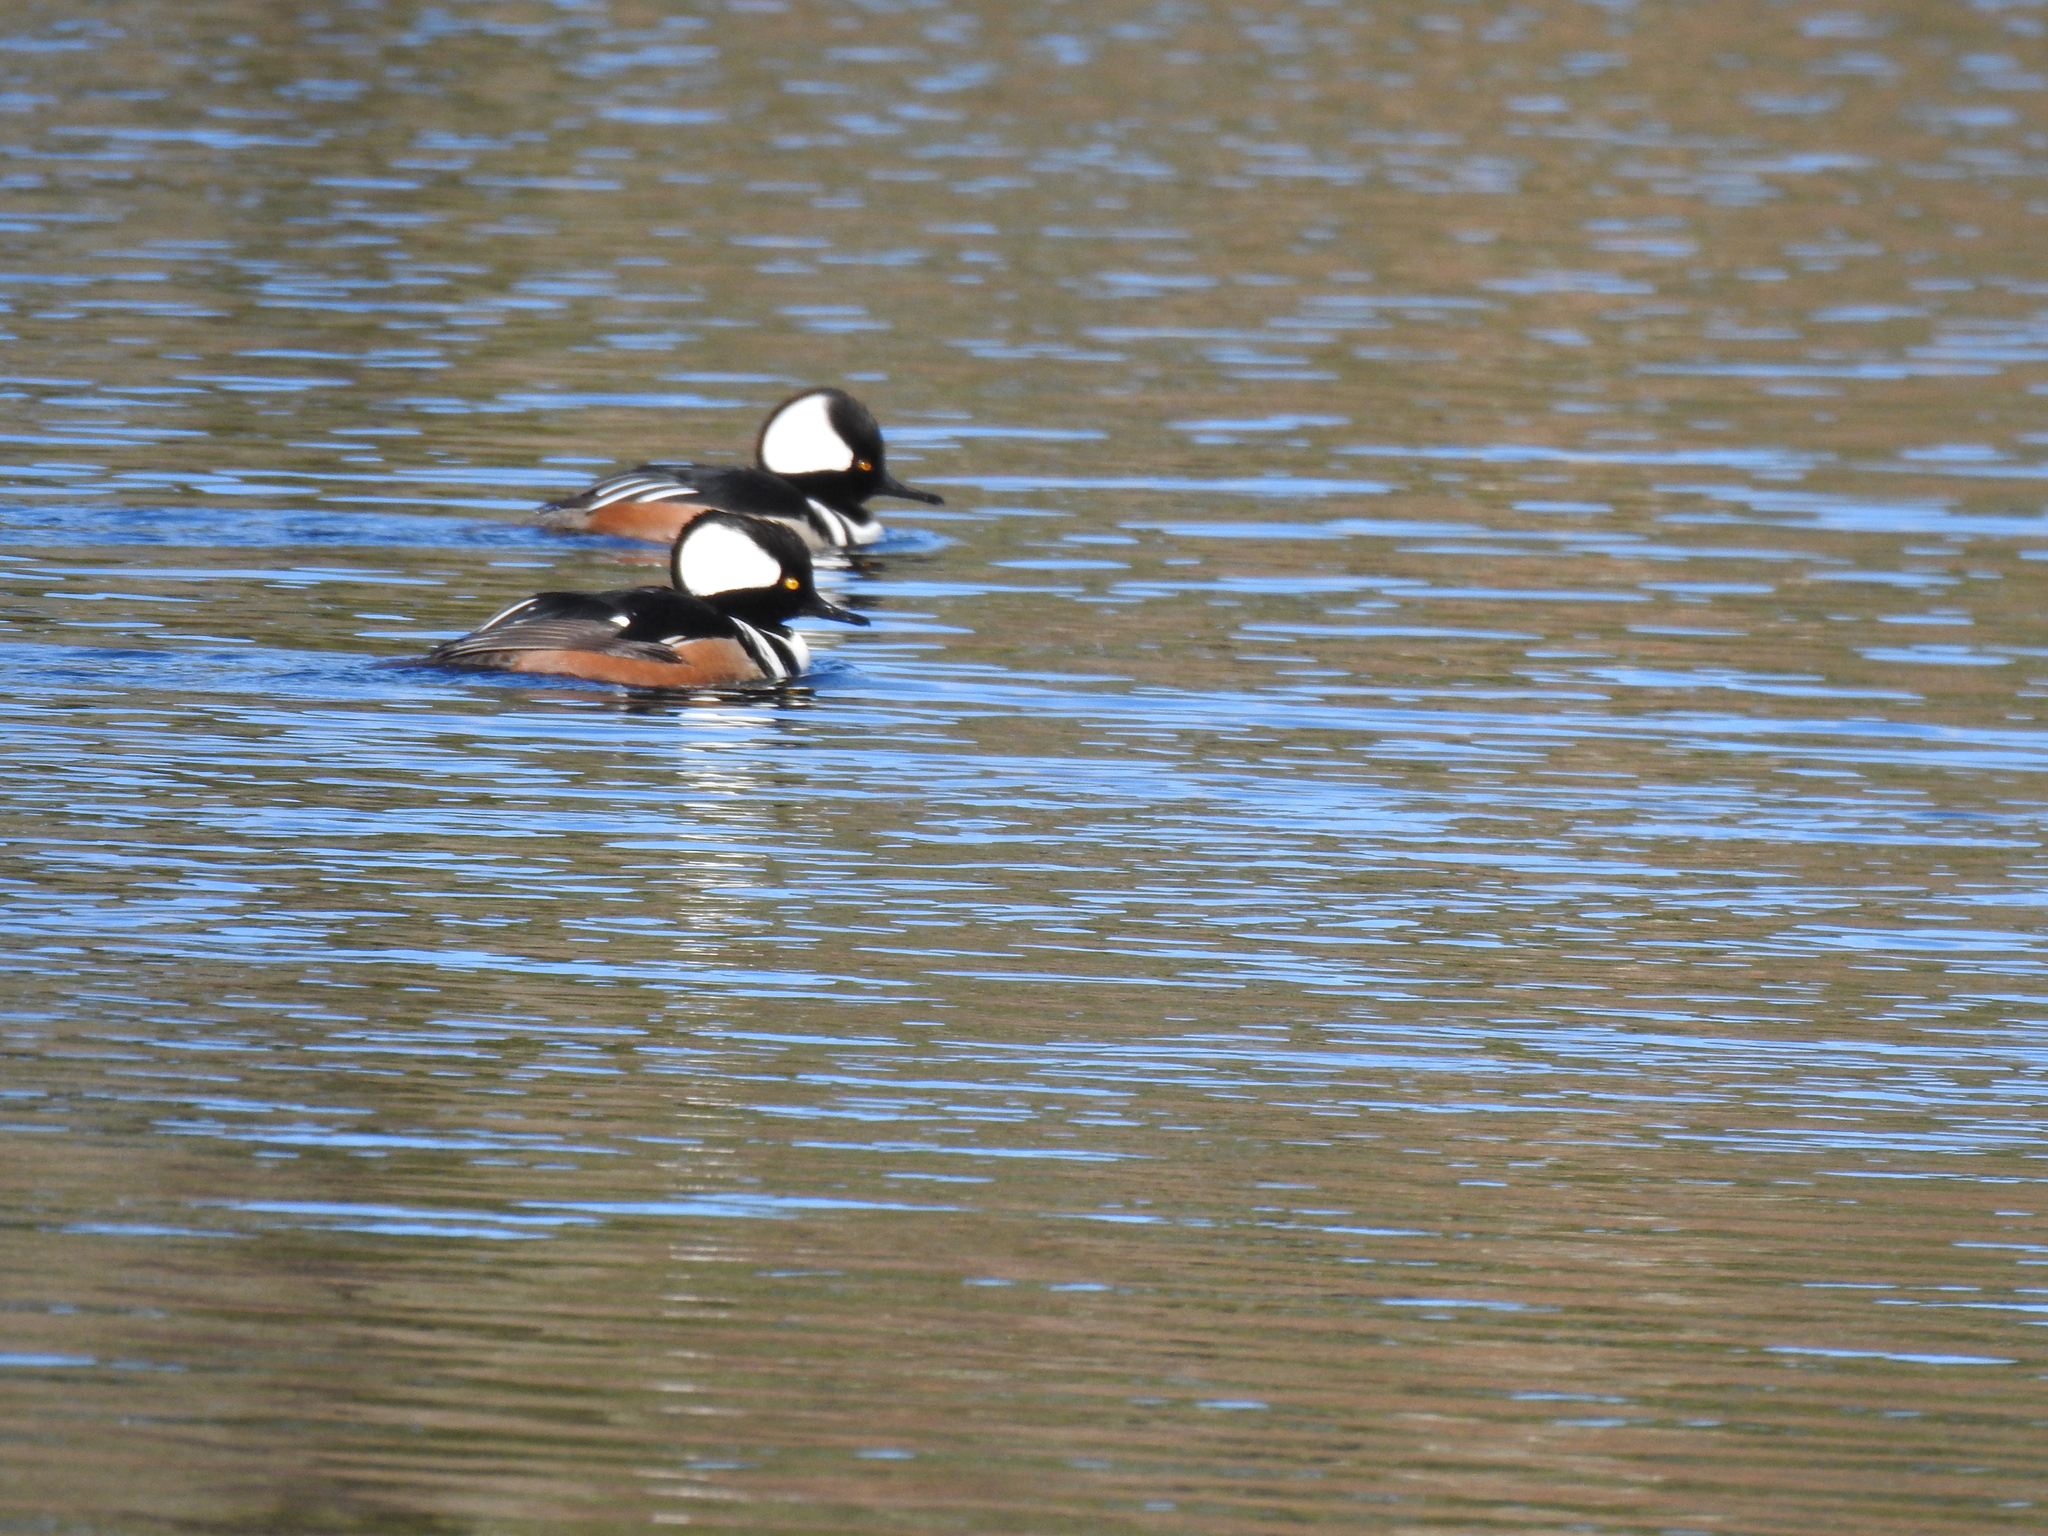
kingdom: Animalia
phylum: Chordata
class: Aves
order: Anseriformes
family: Anatidae
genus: Lophodytes
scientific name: Lophodytes cucullatus
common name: Hooded merganser
